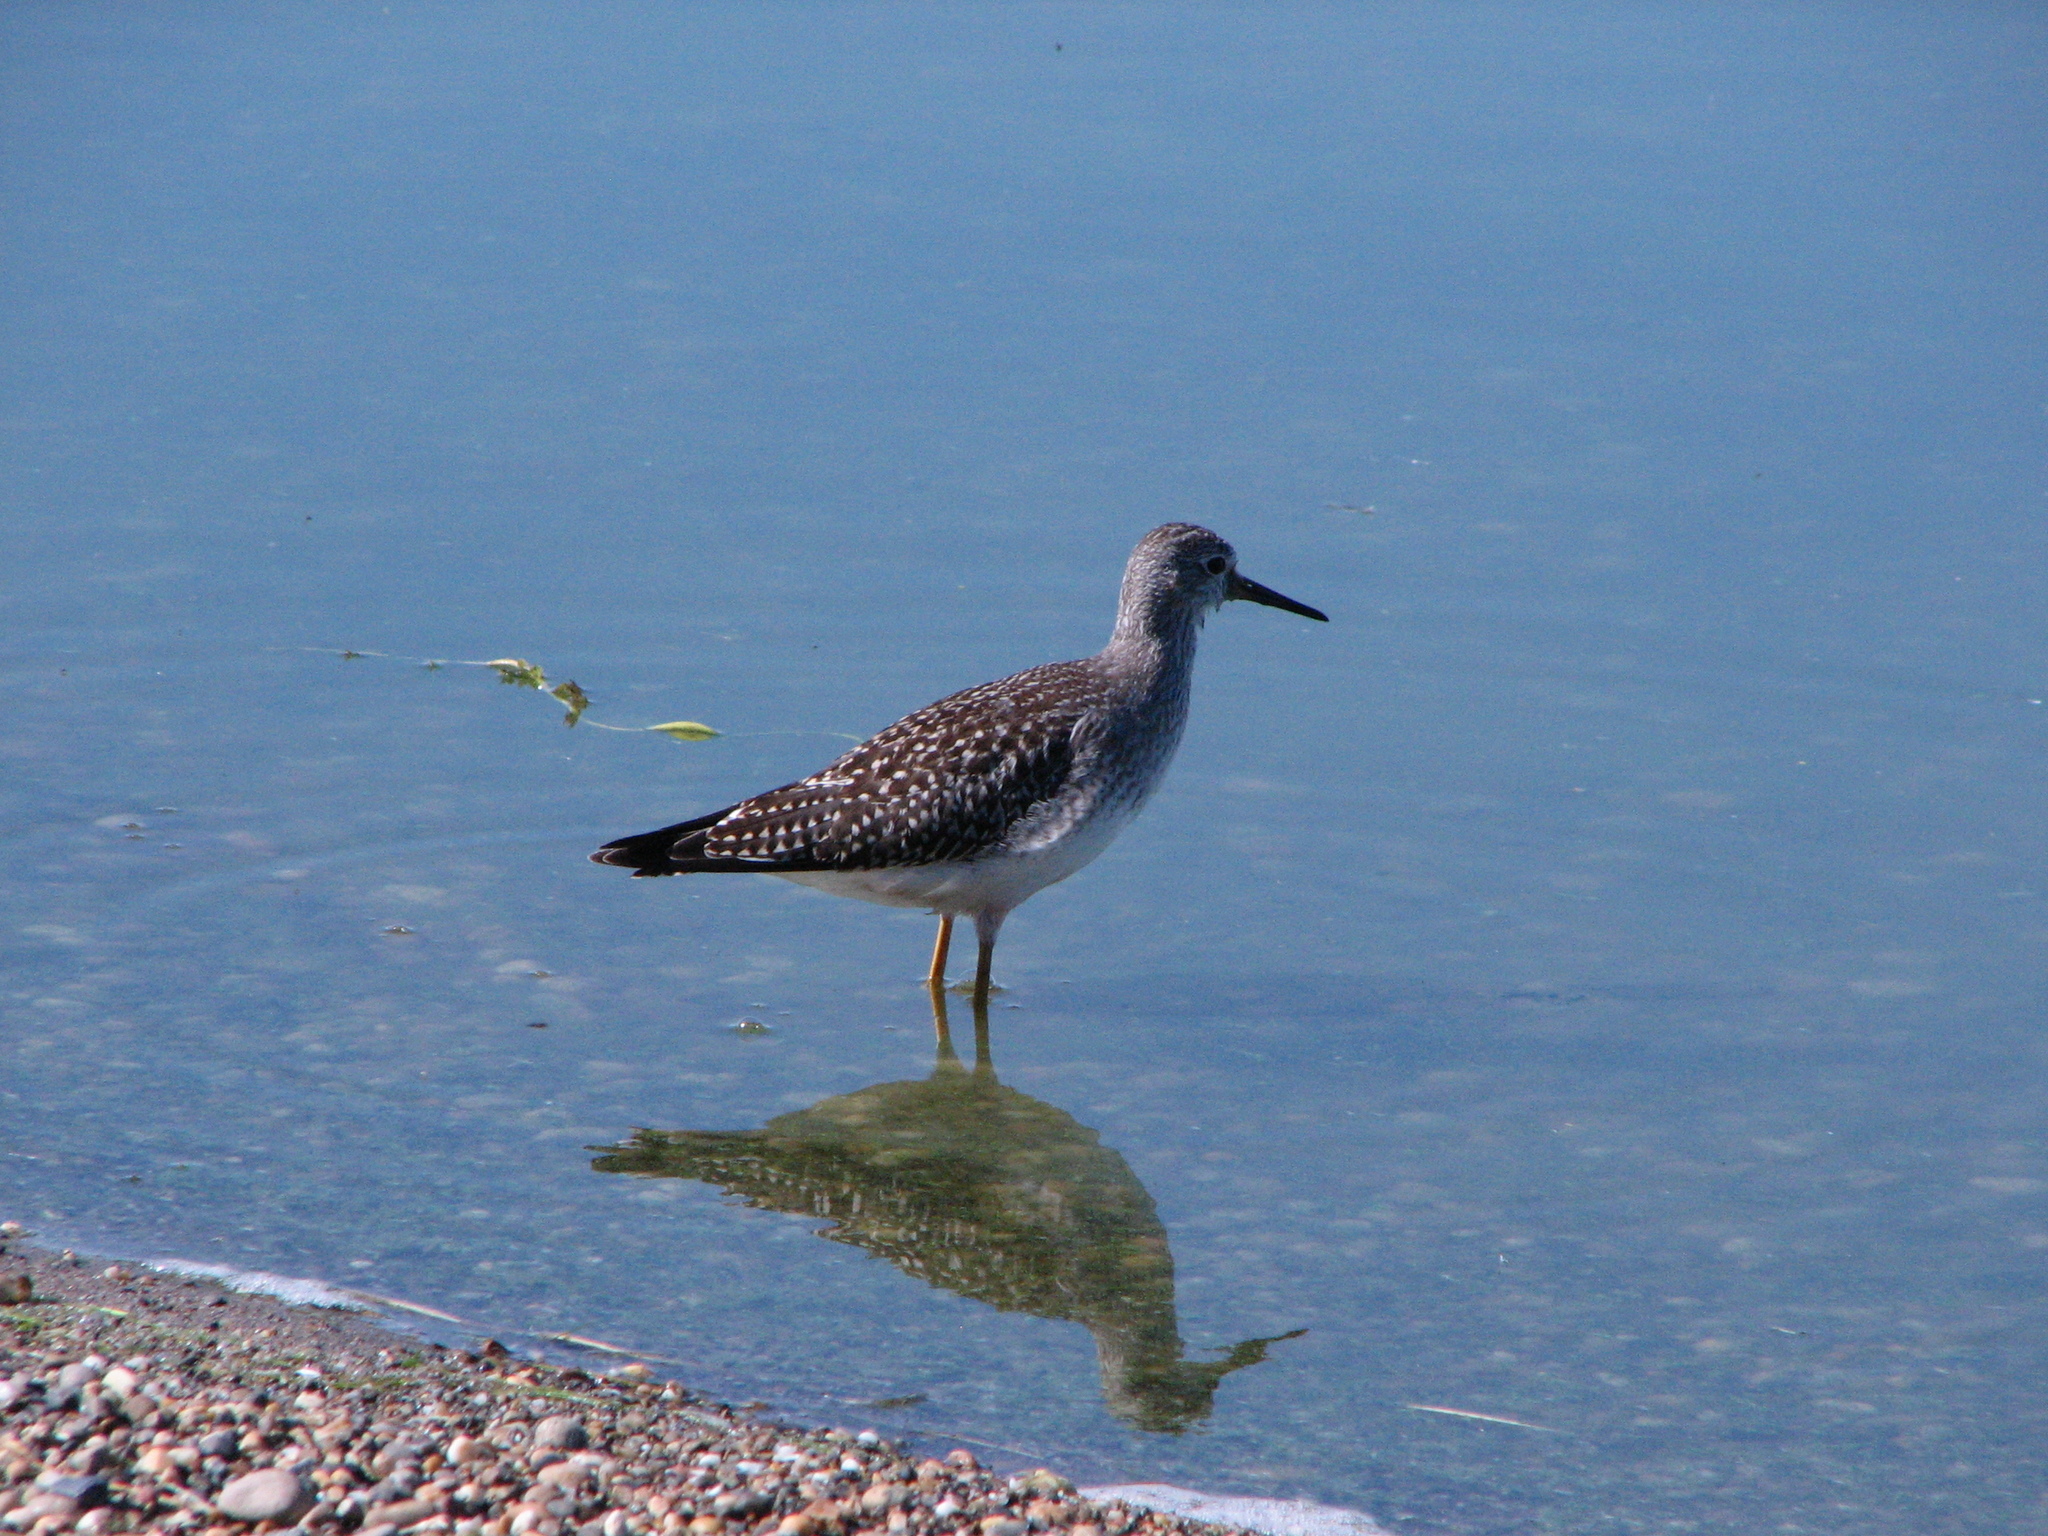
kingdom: Animalia
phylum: Chordata
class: Aves
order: Charadriiformes
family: Scolopacidae
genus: Tringa
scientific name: Tringa flavipes
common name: Lesser yellowlegs
